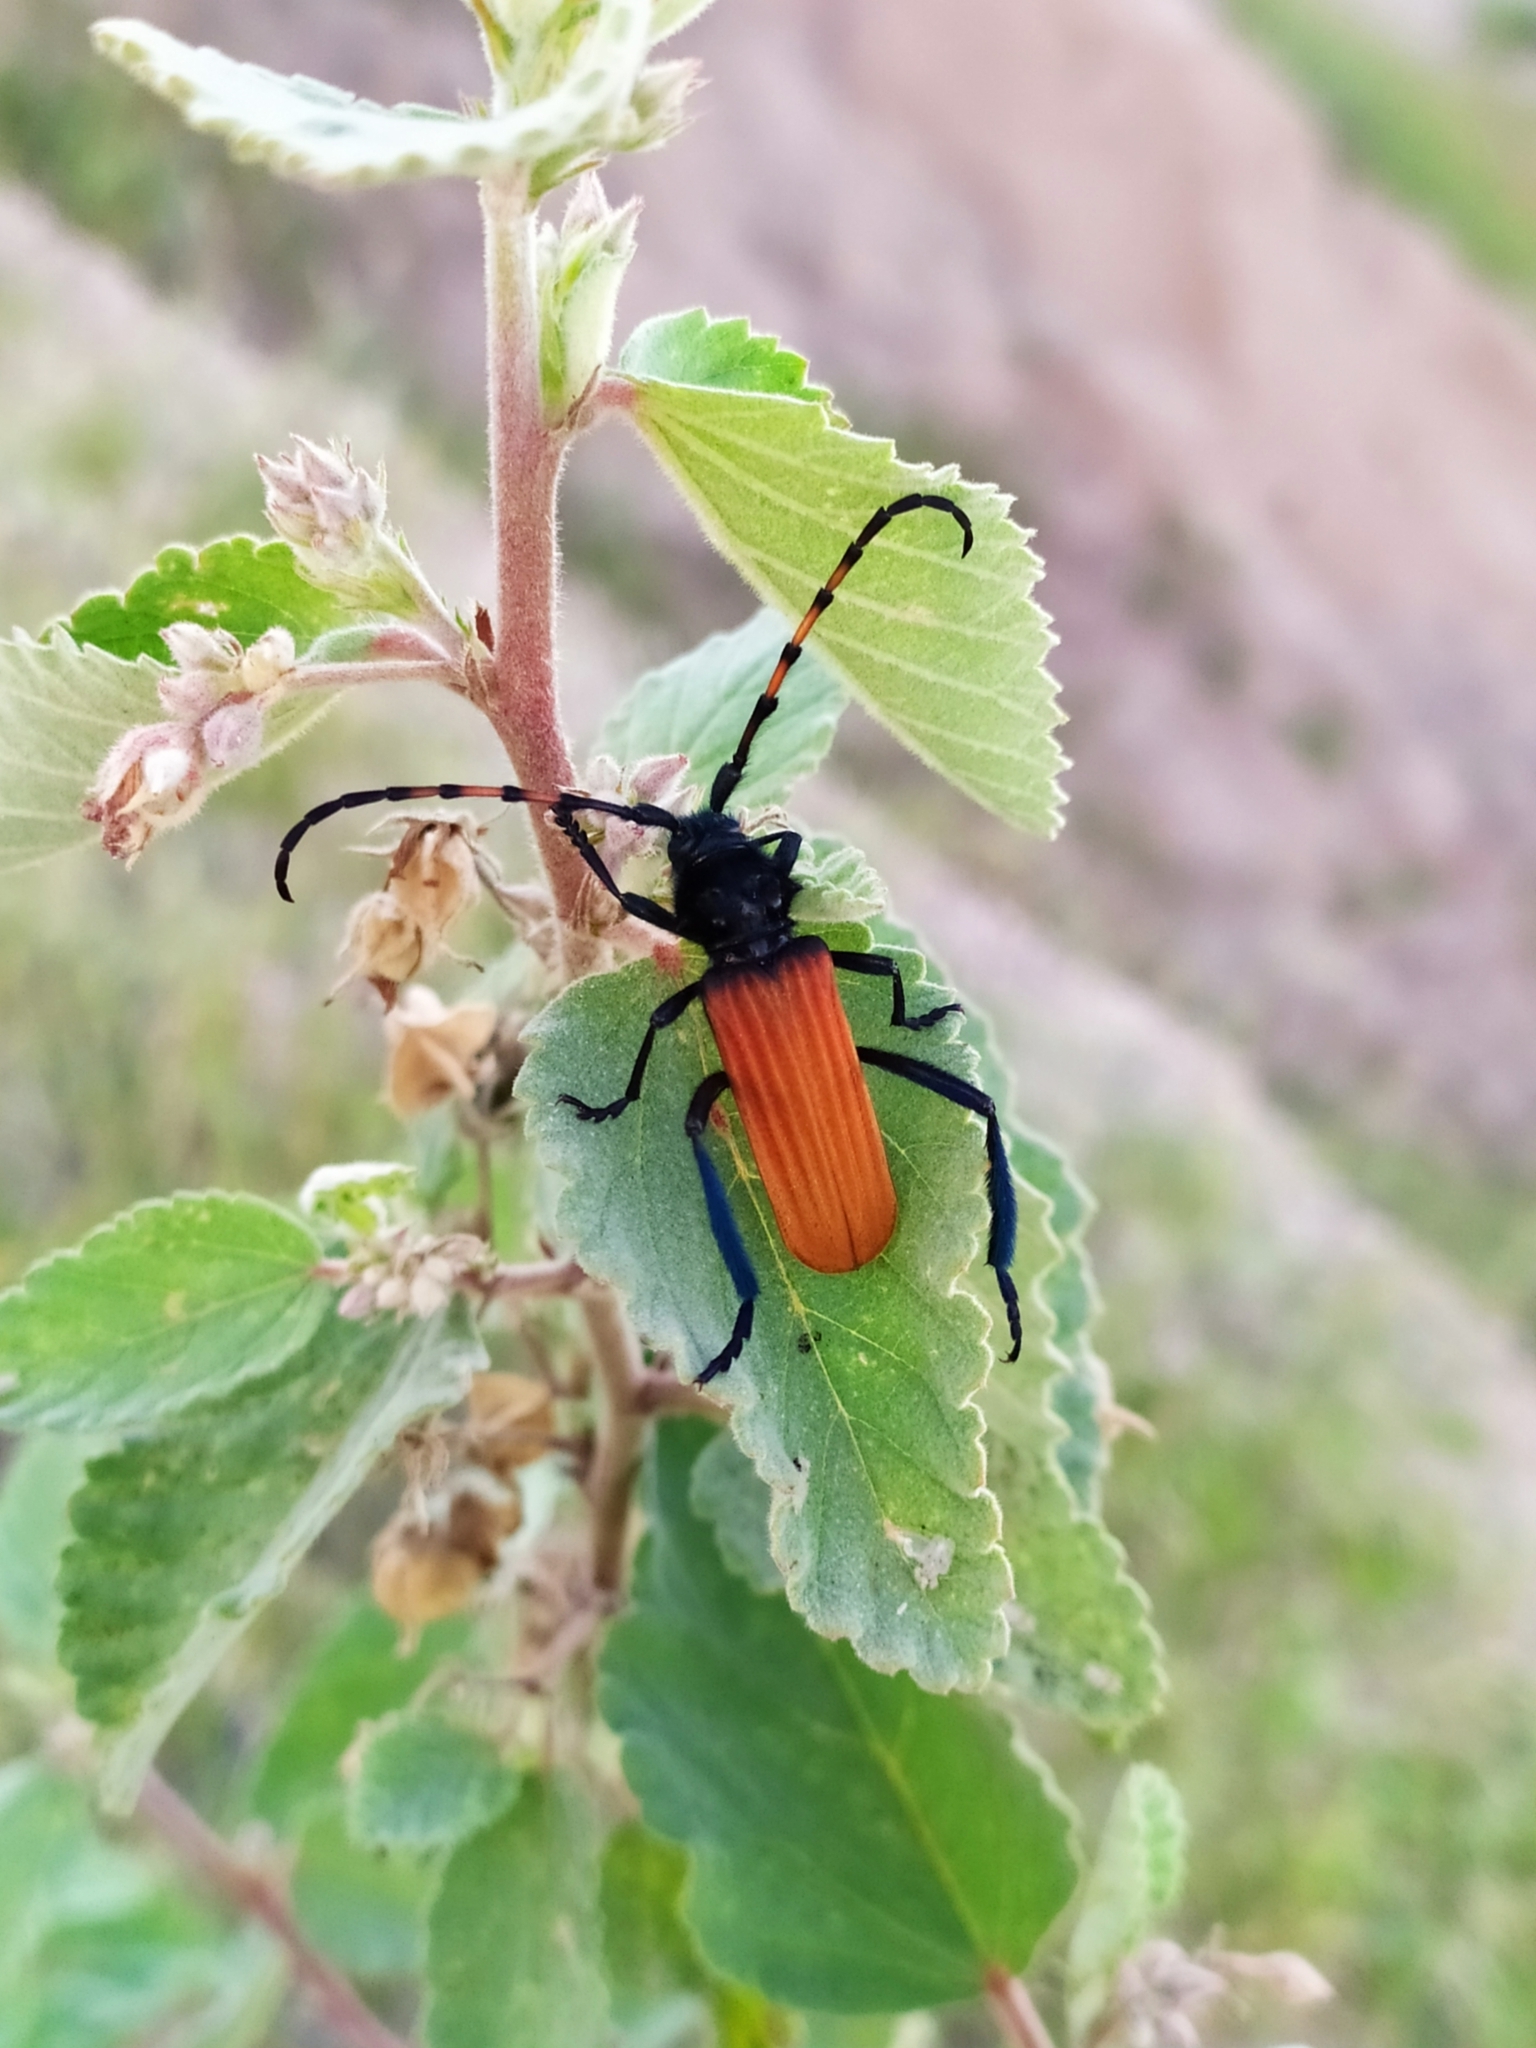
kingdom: Animalia
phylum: Arthropoda
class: Insecta
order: Coleoptera
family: Cerambycidae
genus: Tragidion
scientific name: Tragidion annulatum
